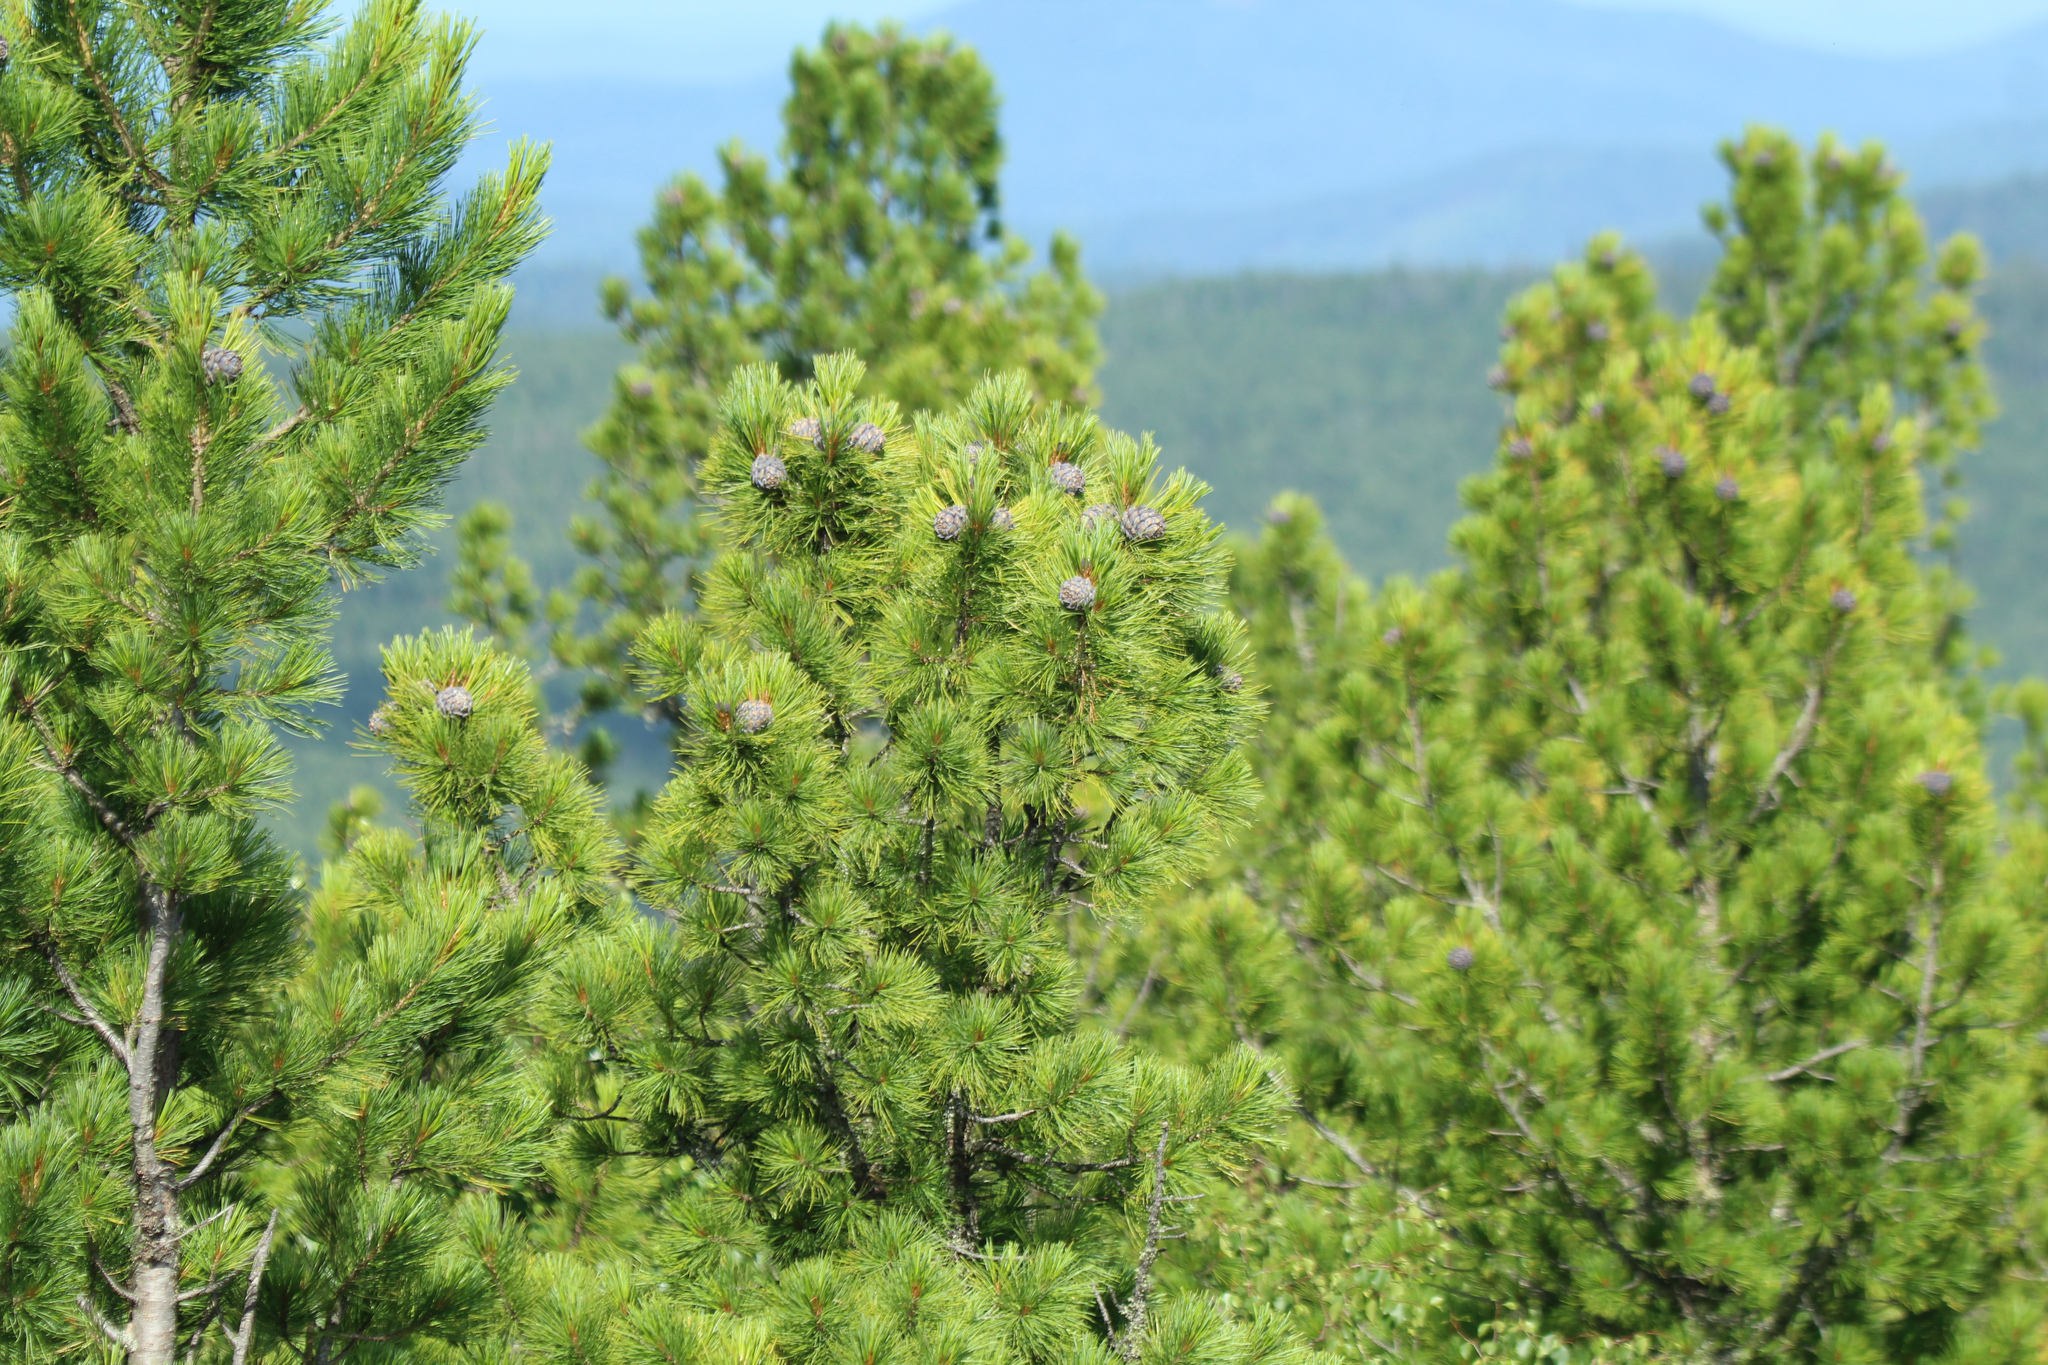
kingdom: Plantae
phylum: Tracheophyta
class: Pinopsida
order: Pinales
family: Pinaceae
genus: Pinus
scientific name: Pinus sibirica
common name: Siberian pine
